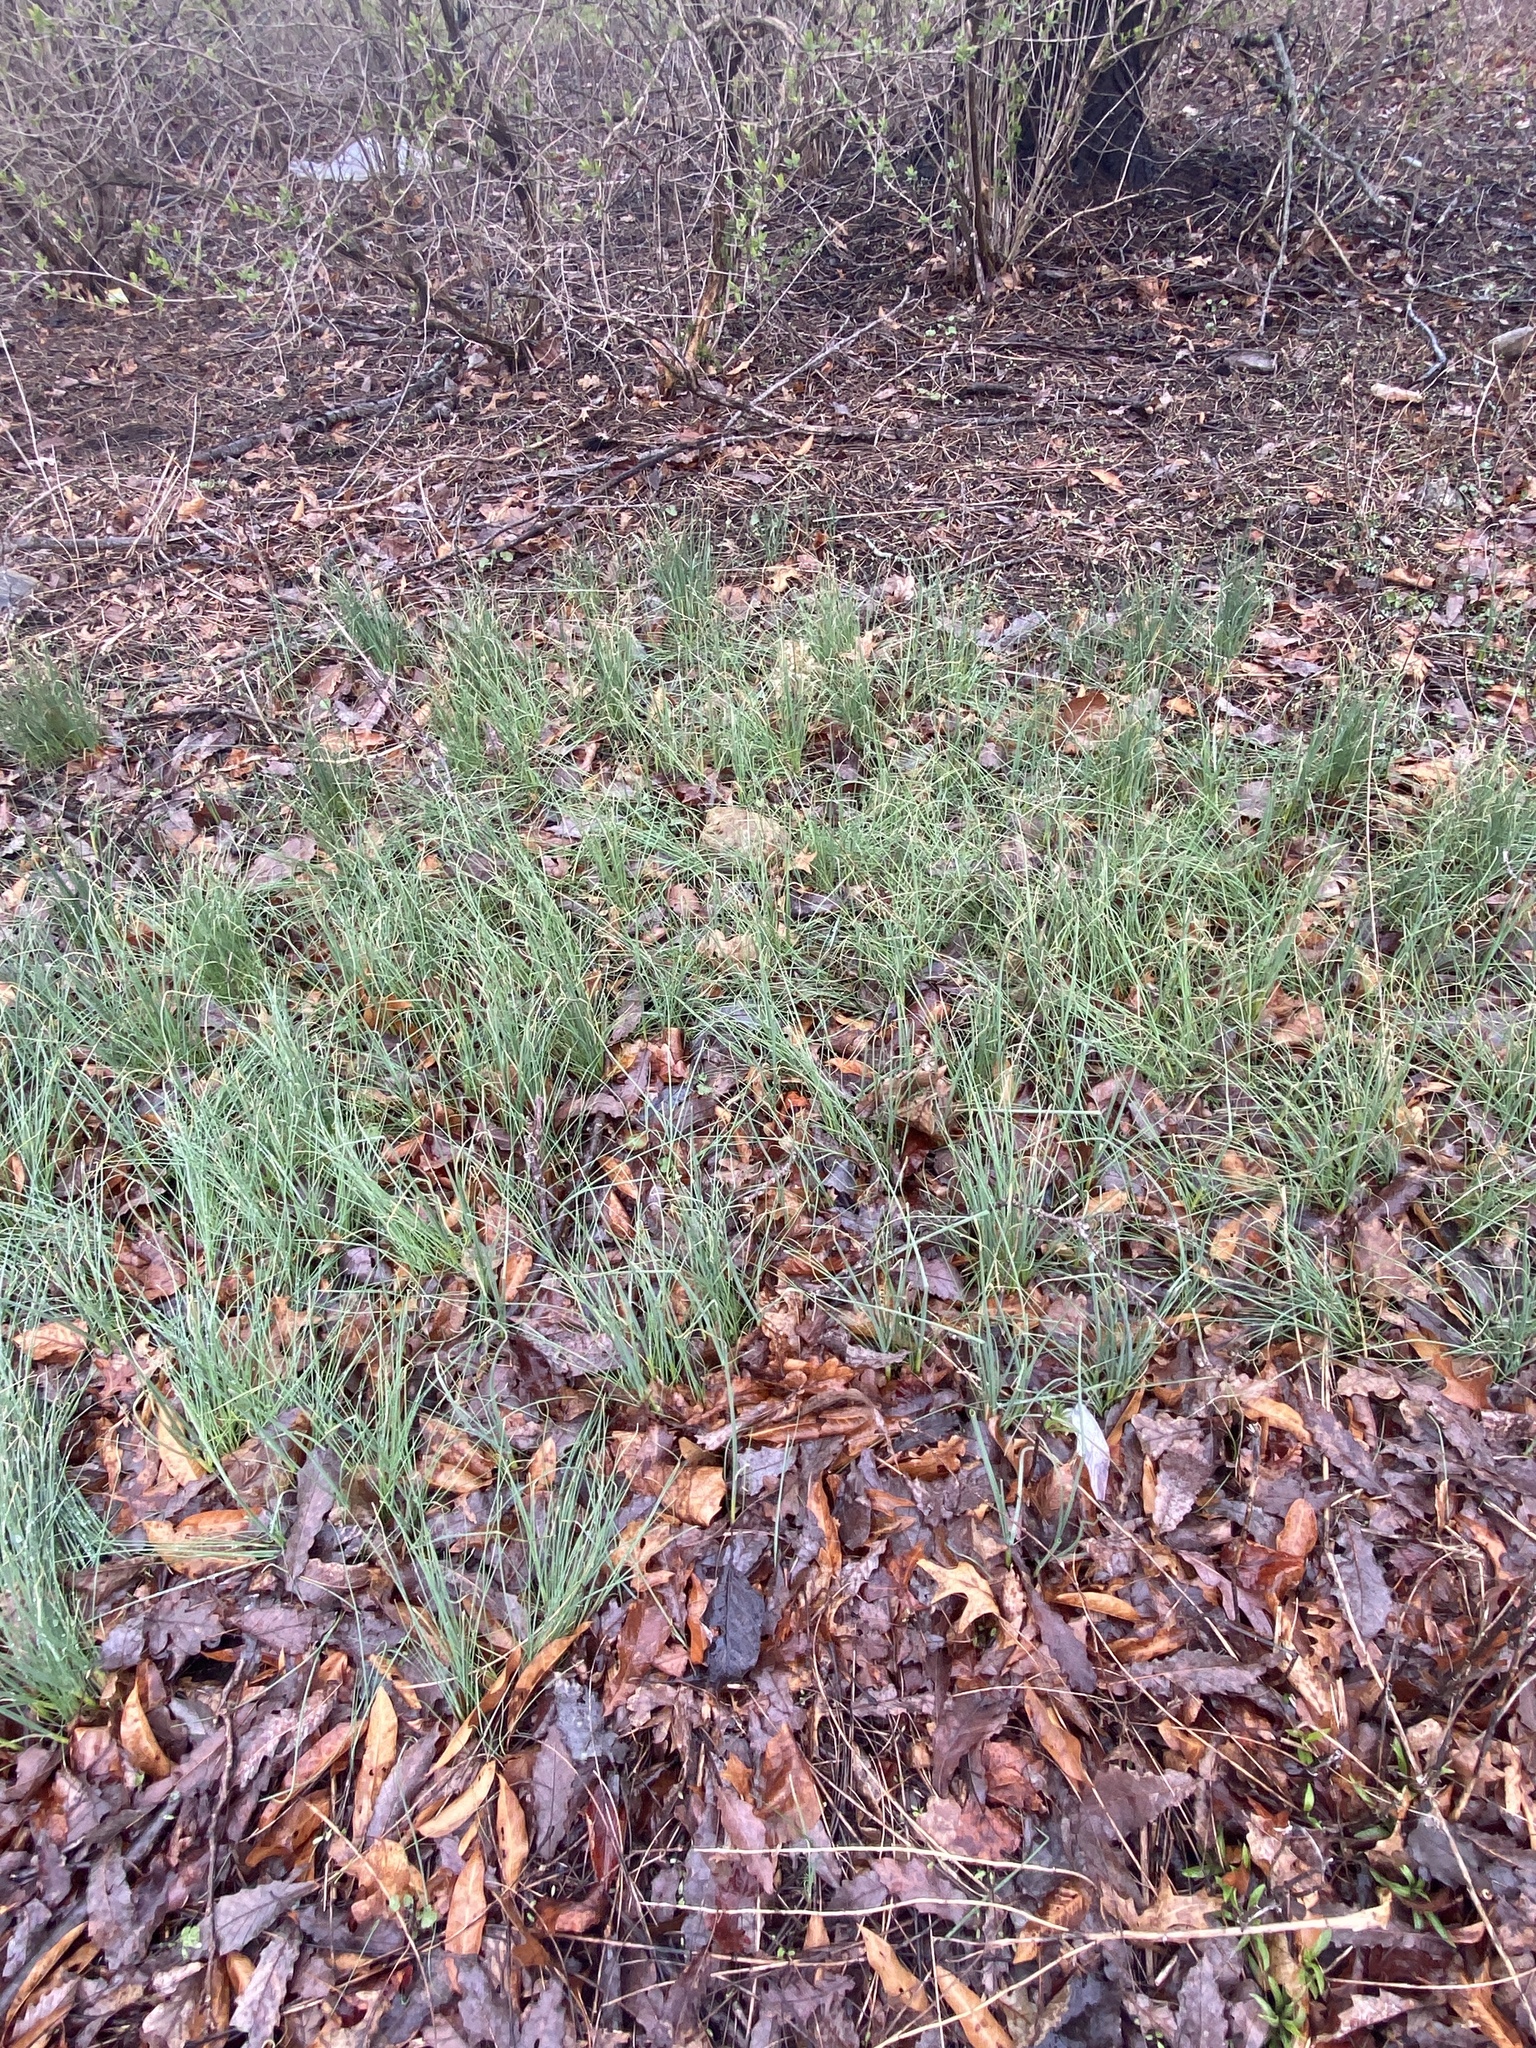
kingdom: Plantae
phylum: Tracheophyta
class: Liliopsida
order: Asparagales
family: Amaryllidaceae
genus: Allium
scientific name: Allium vineale
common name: Crow garlic
